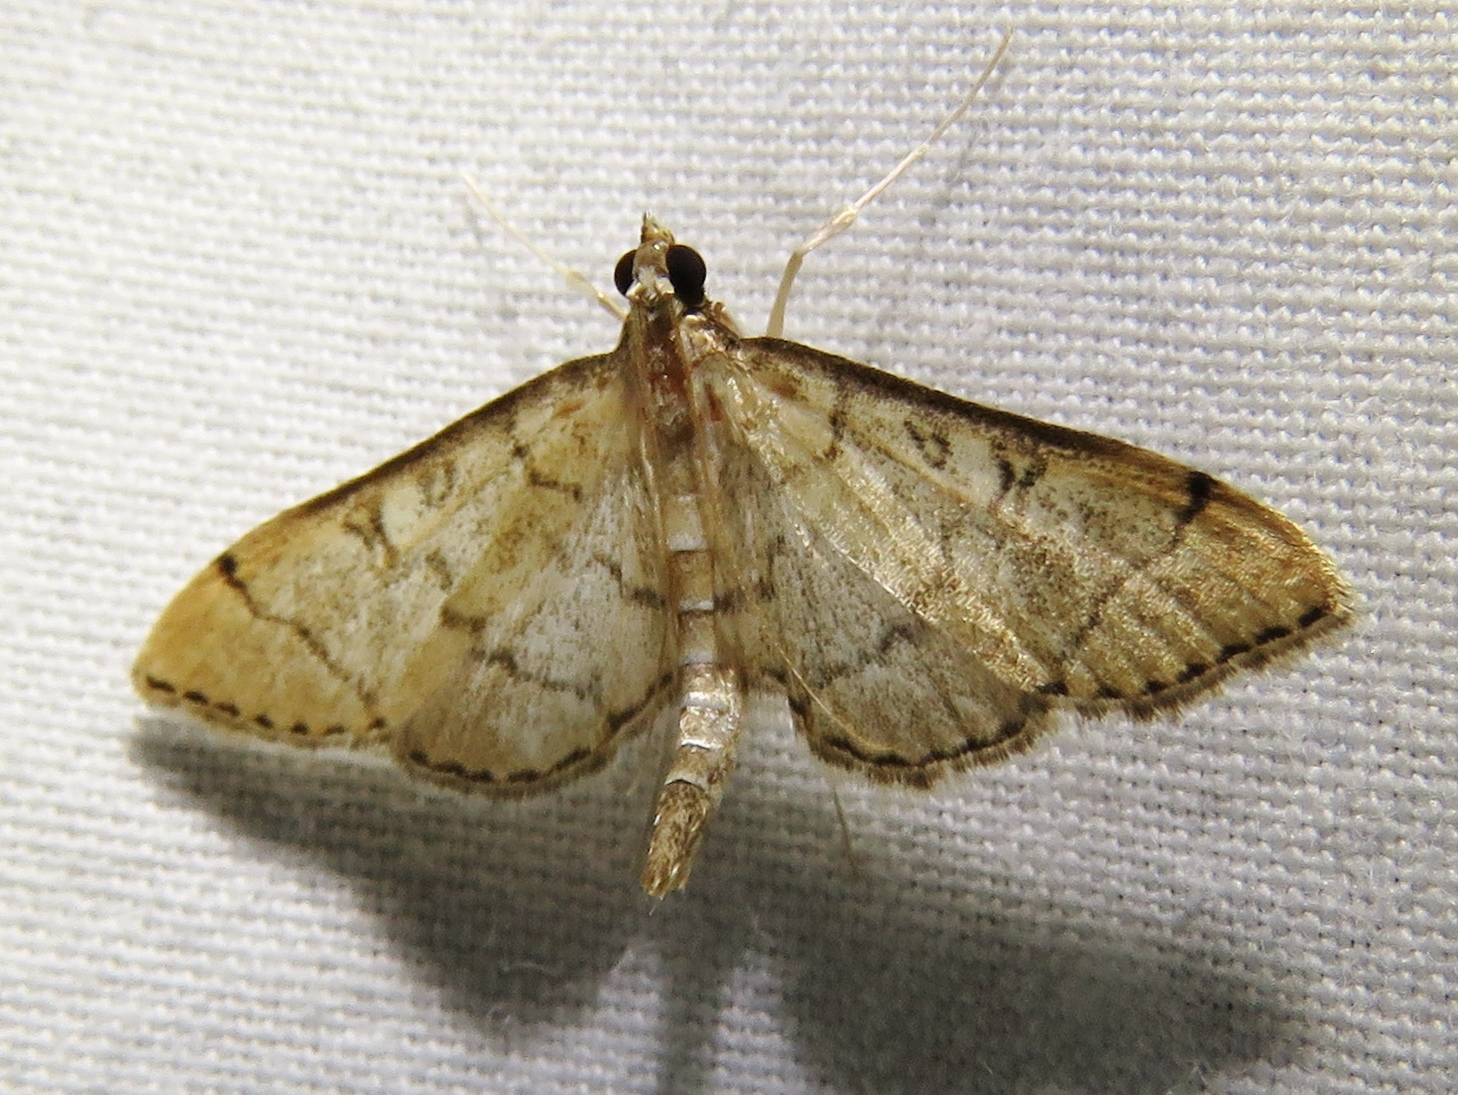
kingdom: Animalia
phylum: Arthropoda
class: Insecta
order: Lepidoptera
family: Crambidae
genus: Lamprosema
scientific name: Lamprosema Blepharomastix ranalis
